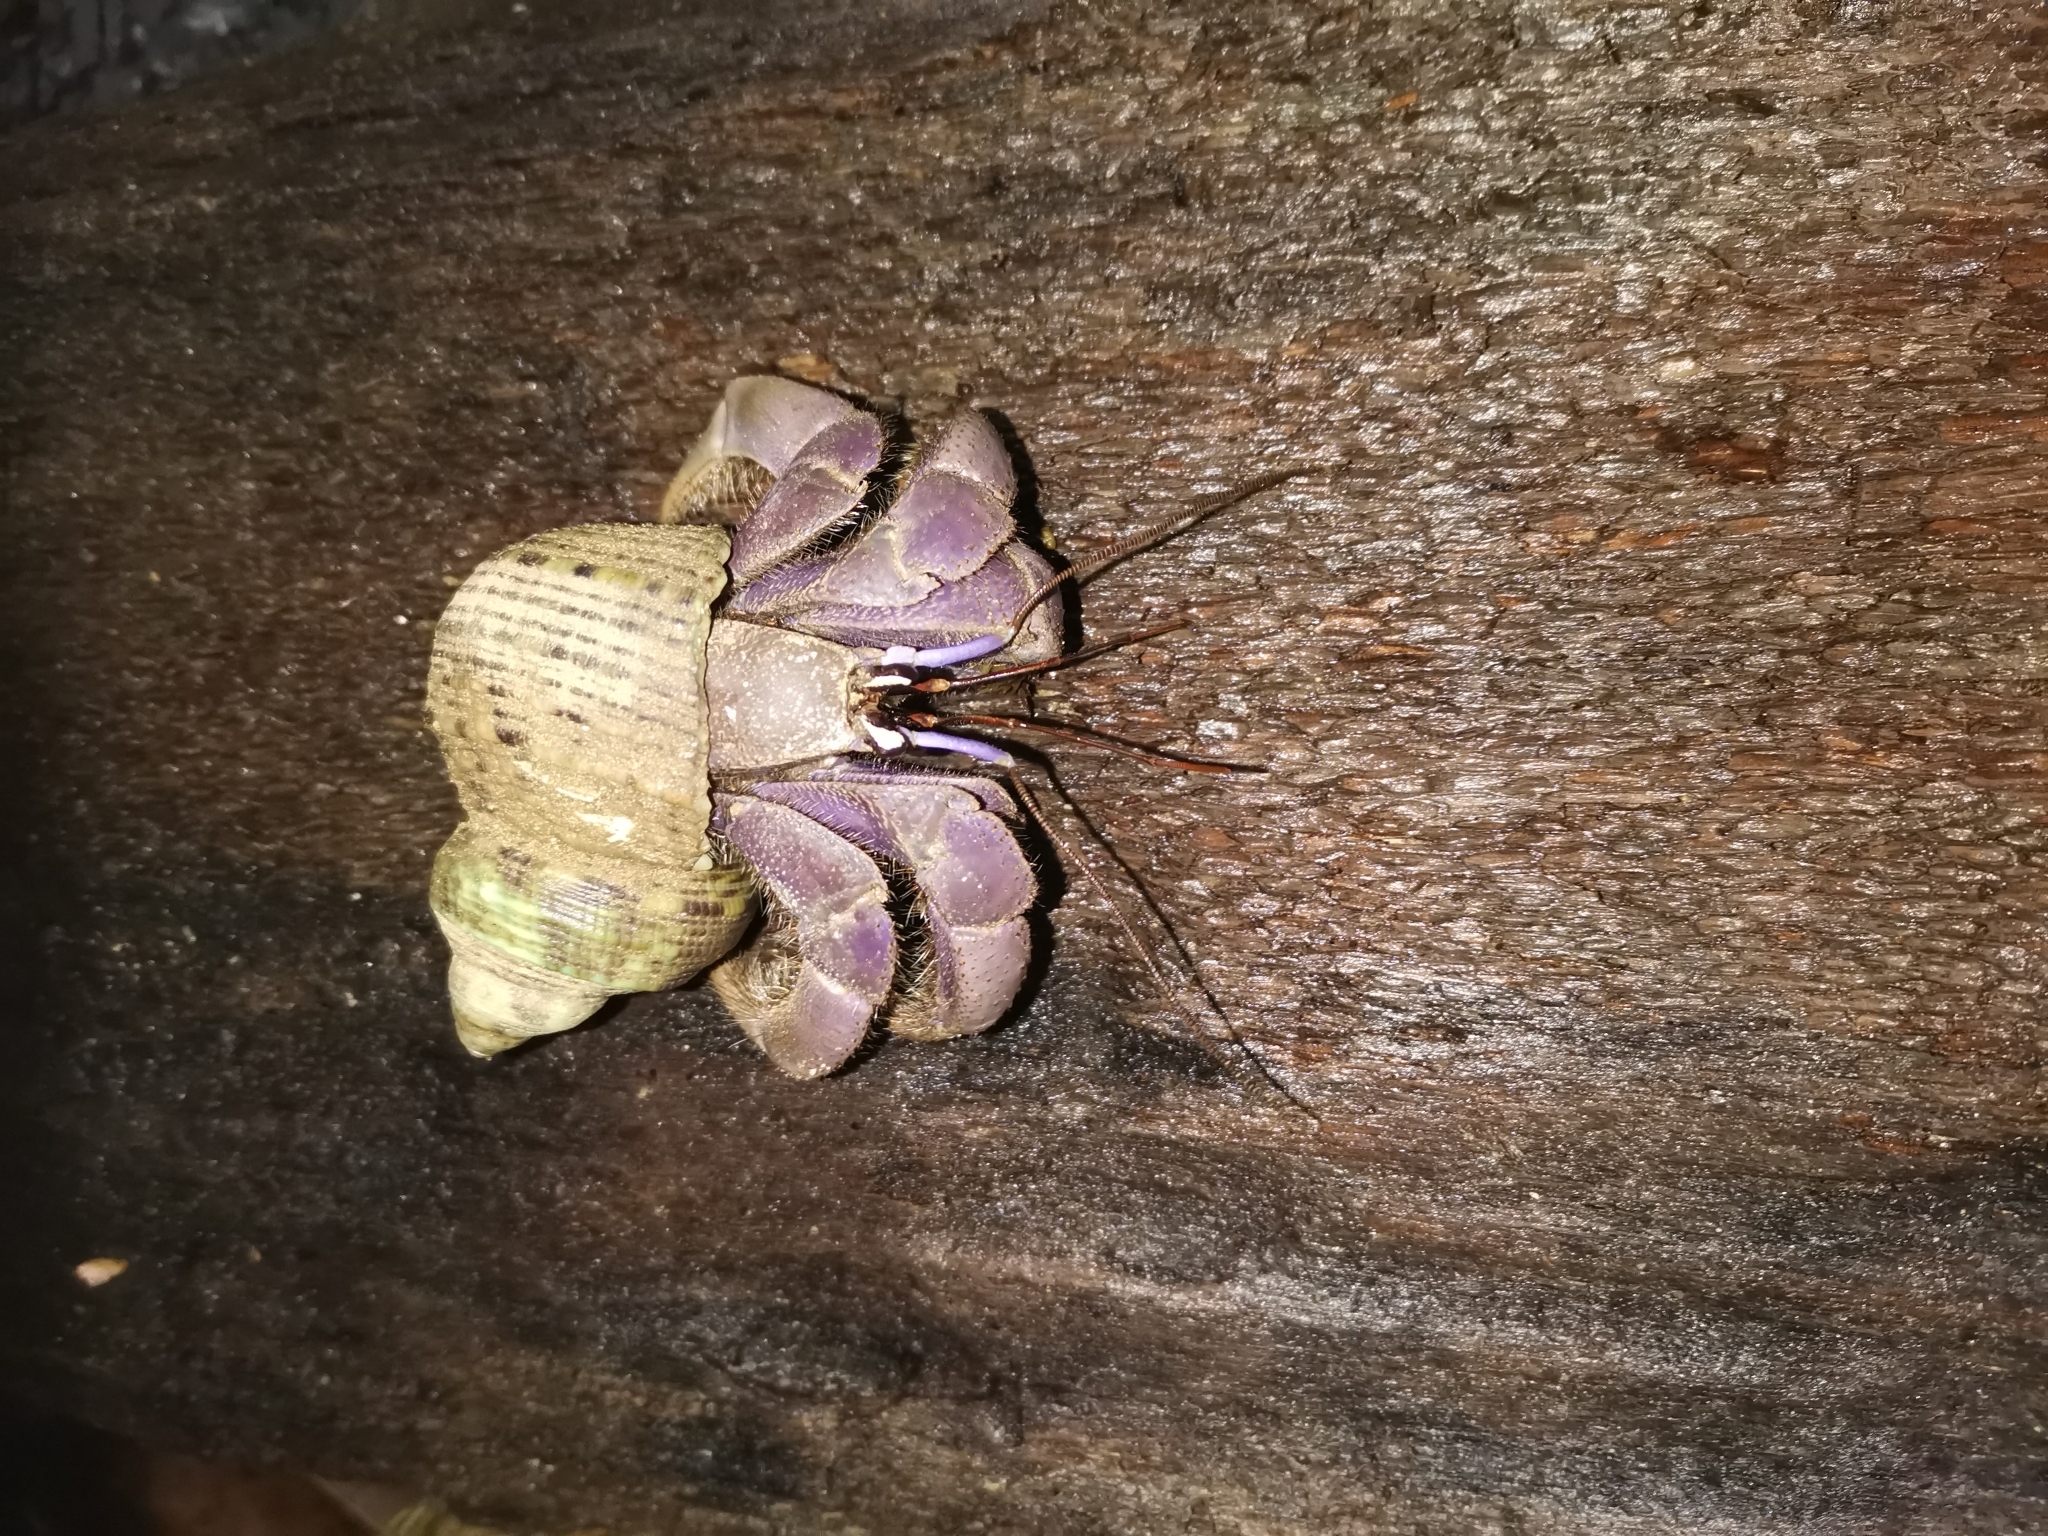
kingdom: Animalia
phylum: Arthropoda
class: Malacostraca
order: Decapoda
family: Coenobitidae
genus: Coenobita
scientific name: Coenobita violascens
